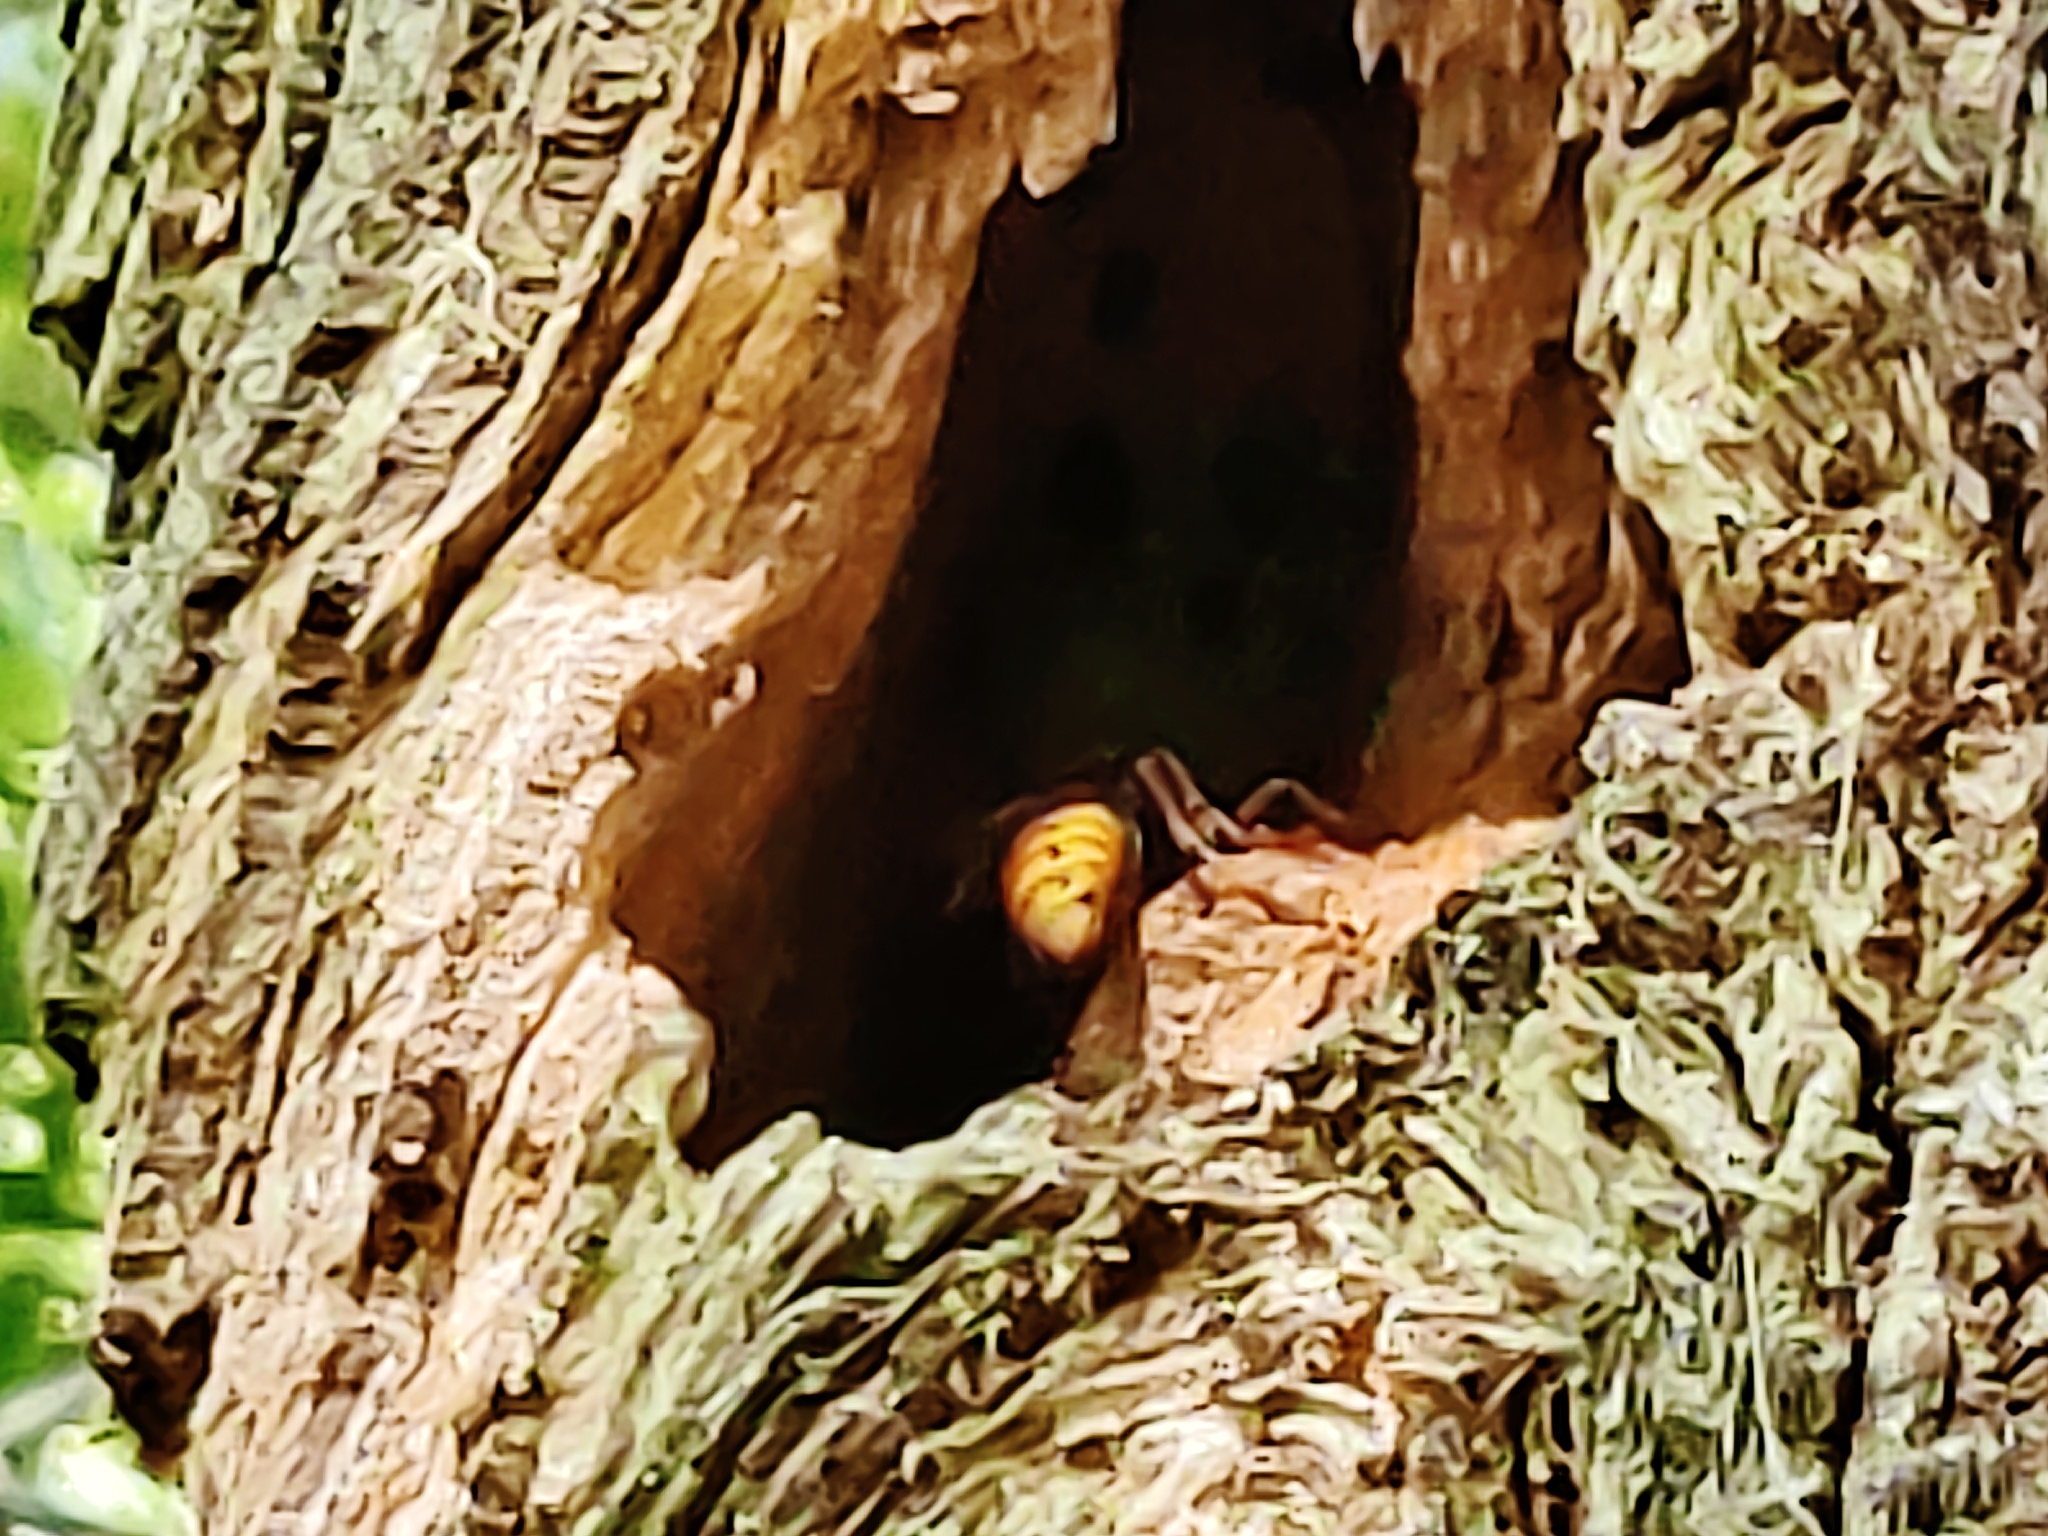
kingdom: Animalia
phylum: Arthropoda
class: Insecta
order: Hymenoptera
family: Vespidae
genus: Vespa
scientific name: Vespa crabro
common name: Hornet
